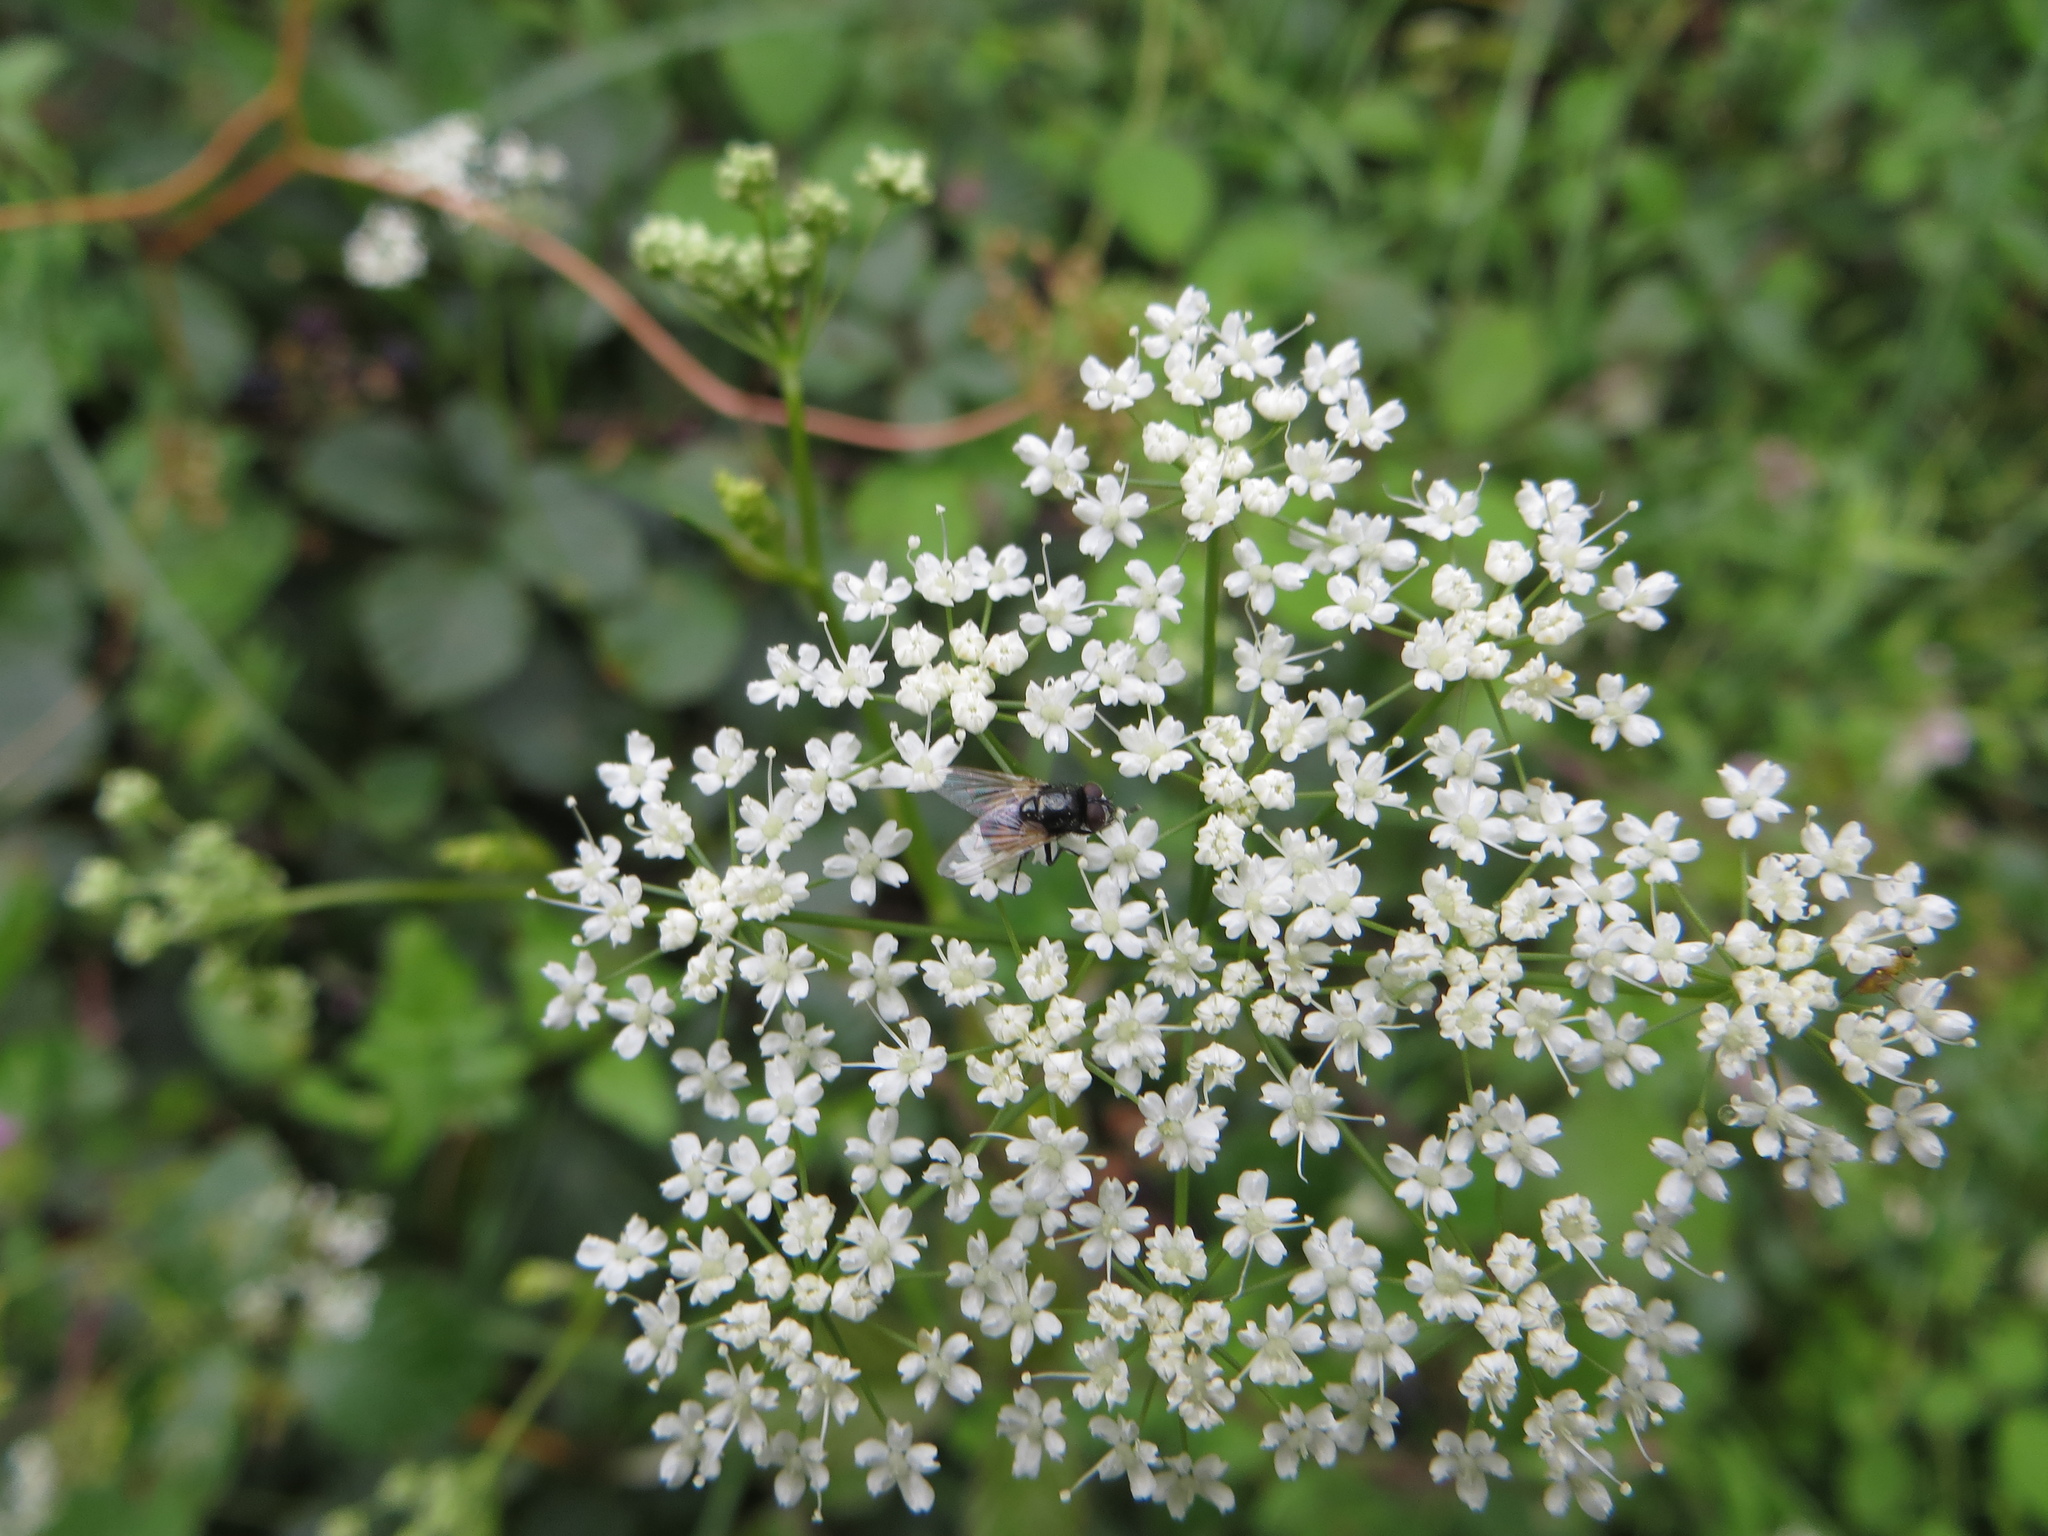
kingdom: Animalia
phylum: Arthropoda
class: Insecta
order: Diptera
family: Muscidae
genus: Musca
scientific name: Musca osiris
